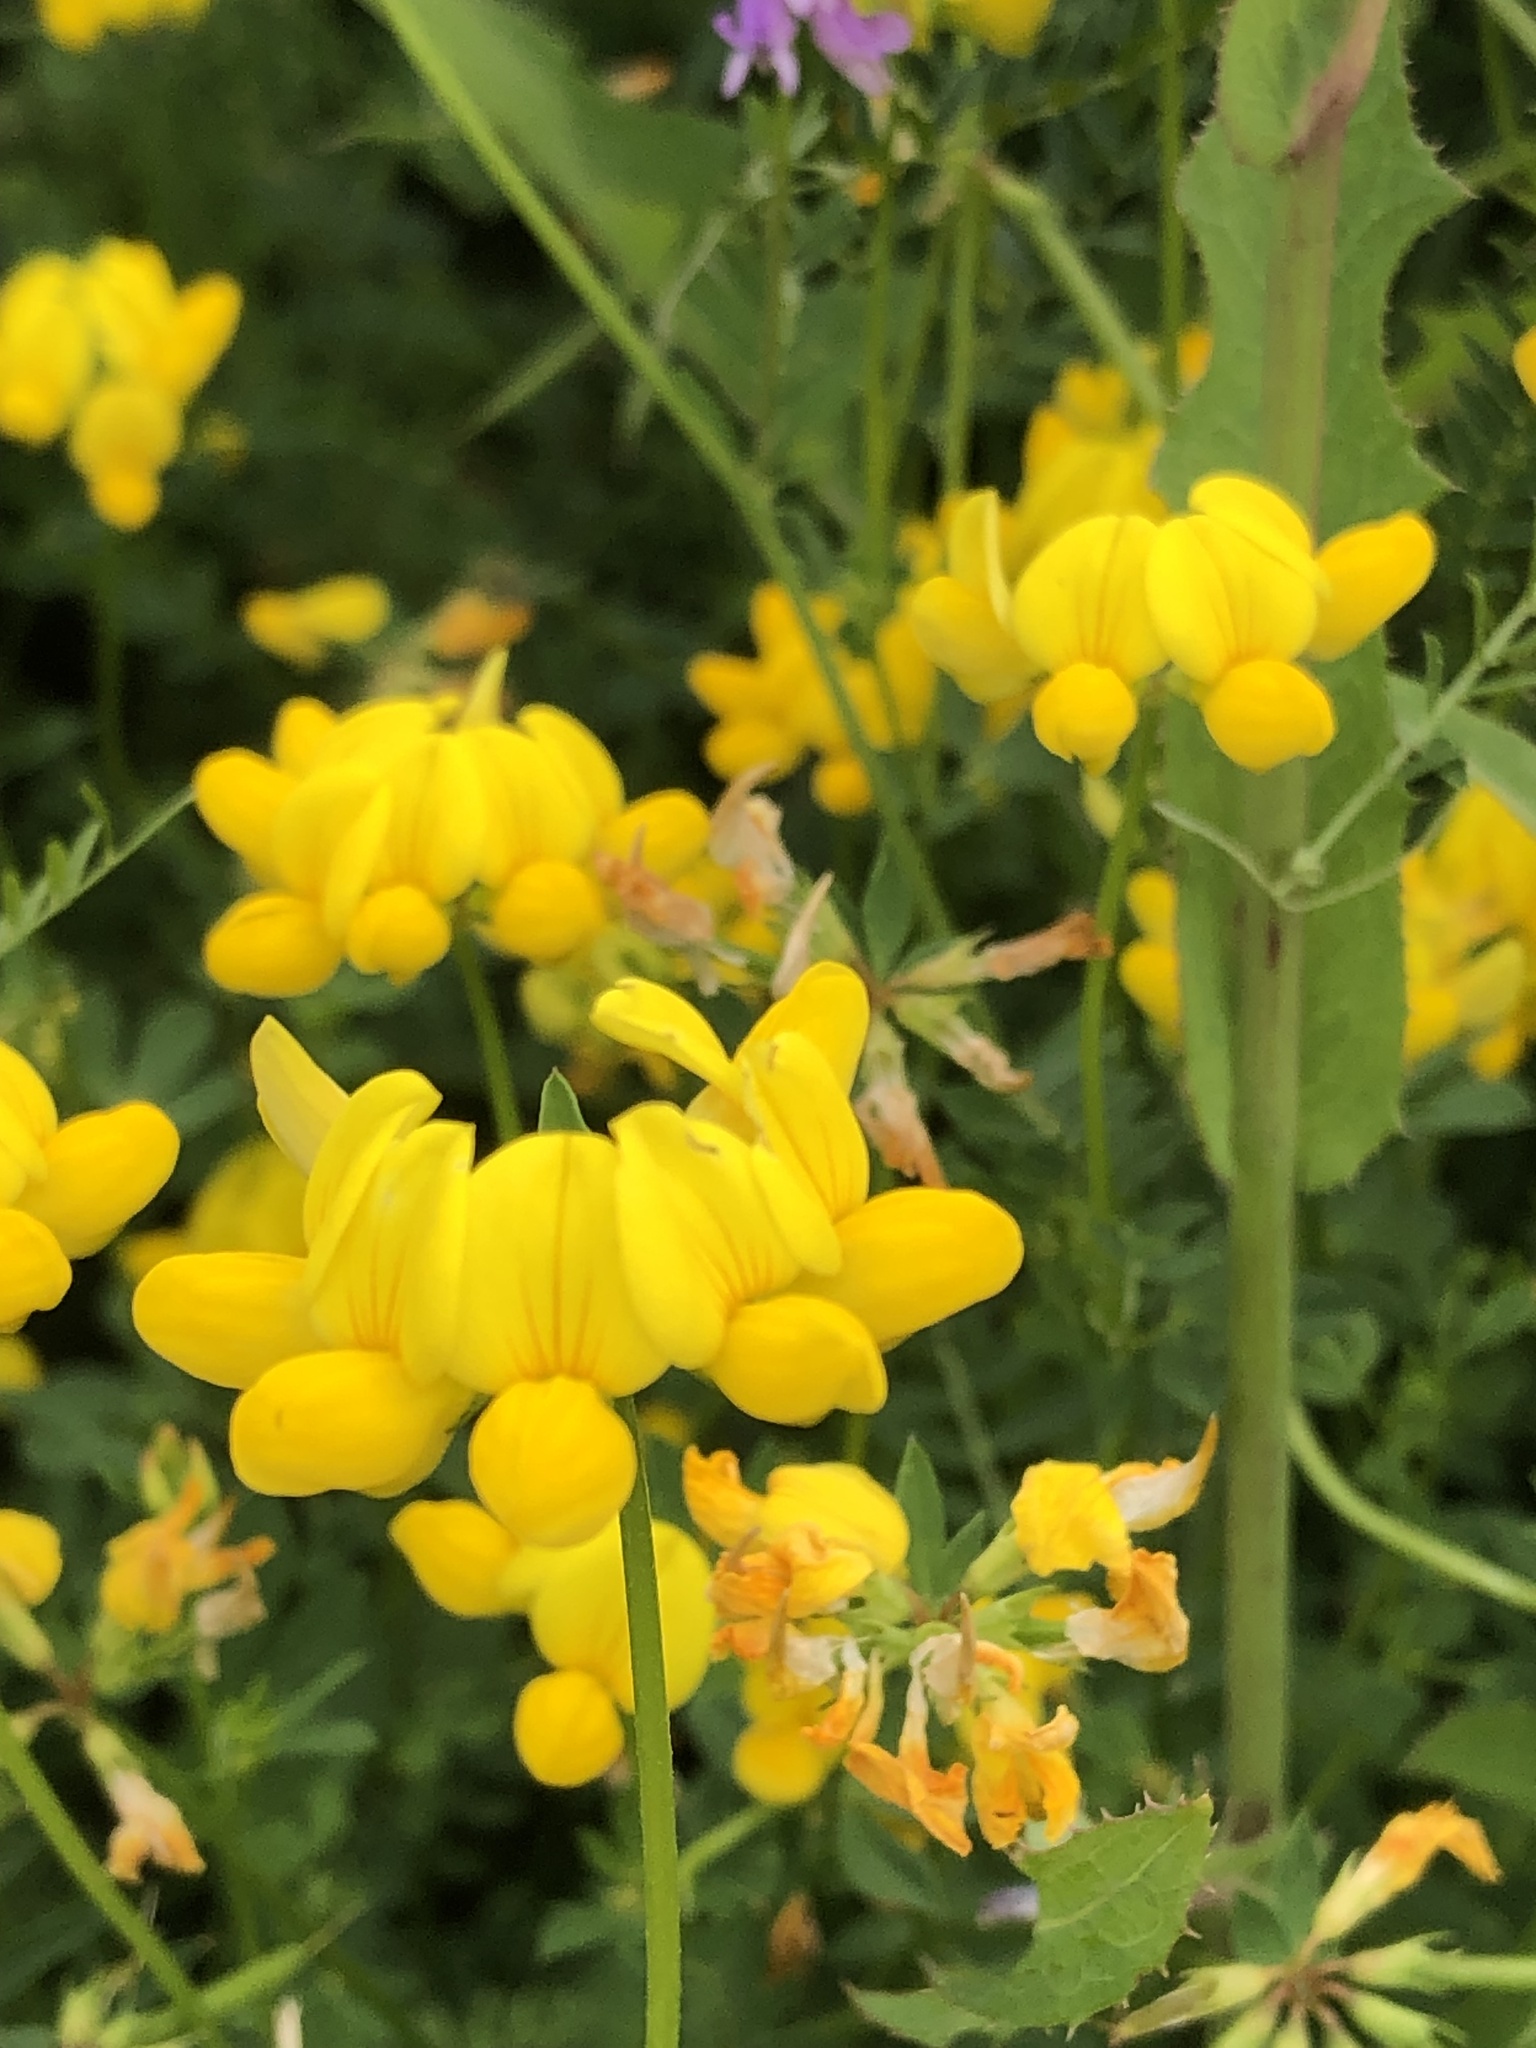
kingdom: Plantae
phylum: Tracheophyta
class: Magnoliopsida
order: Fabales
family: Fabaceae
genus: Lotus
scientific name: Lotus corniculatus
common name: Common bird's-foot-trefoil
